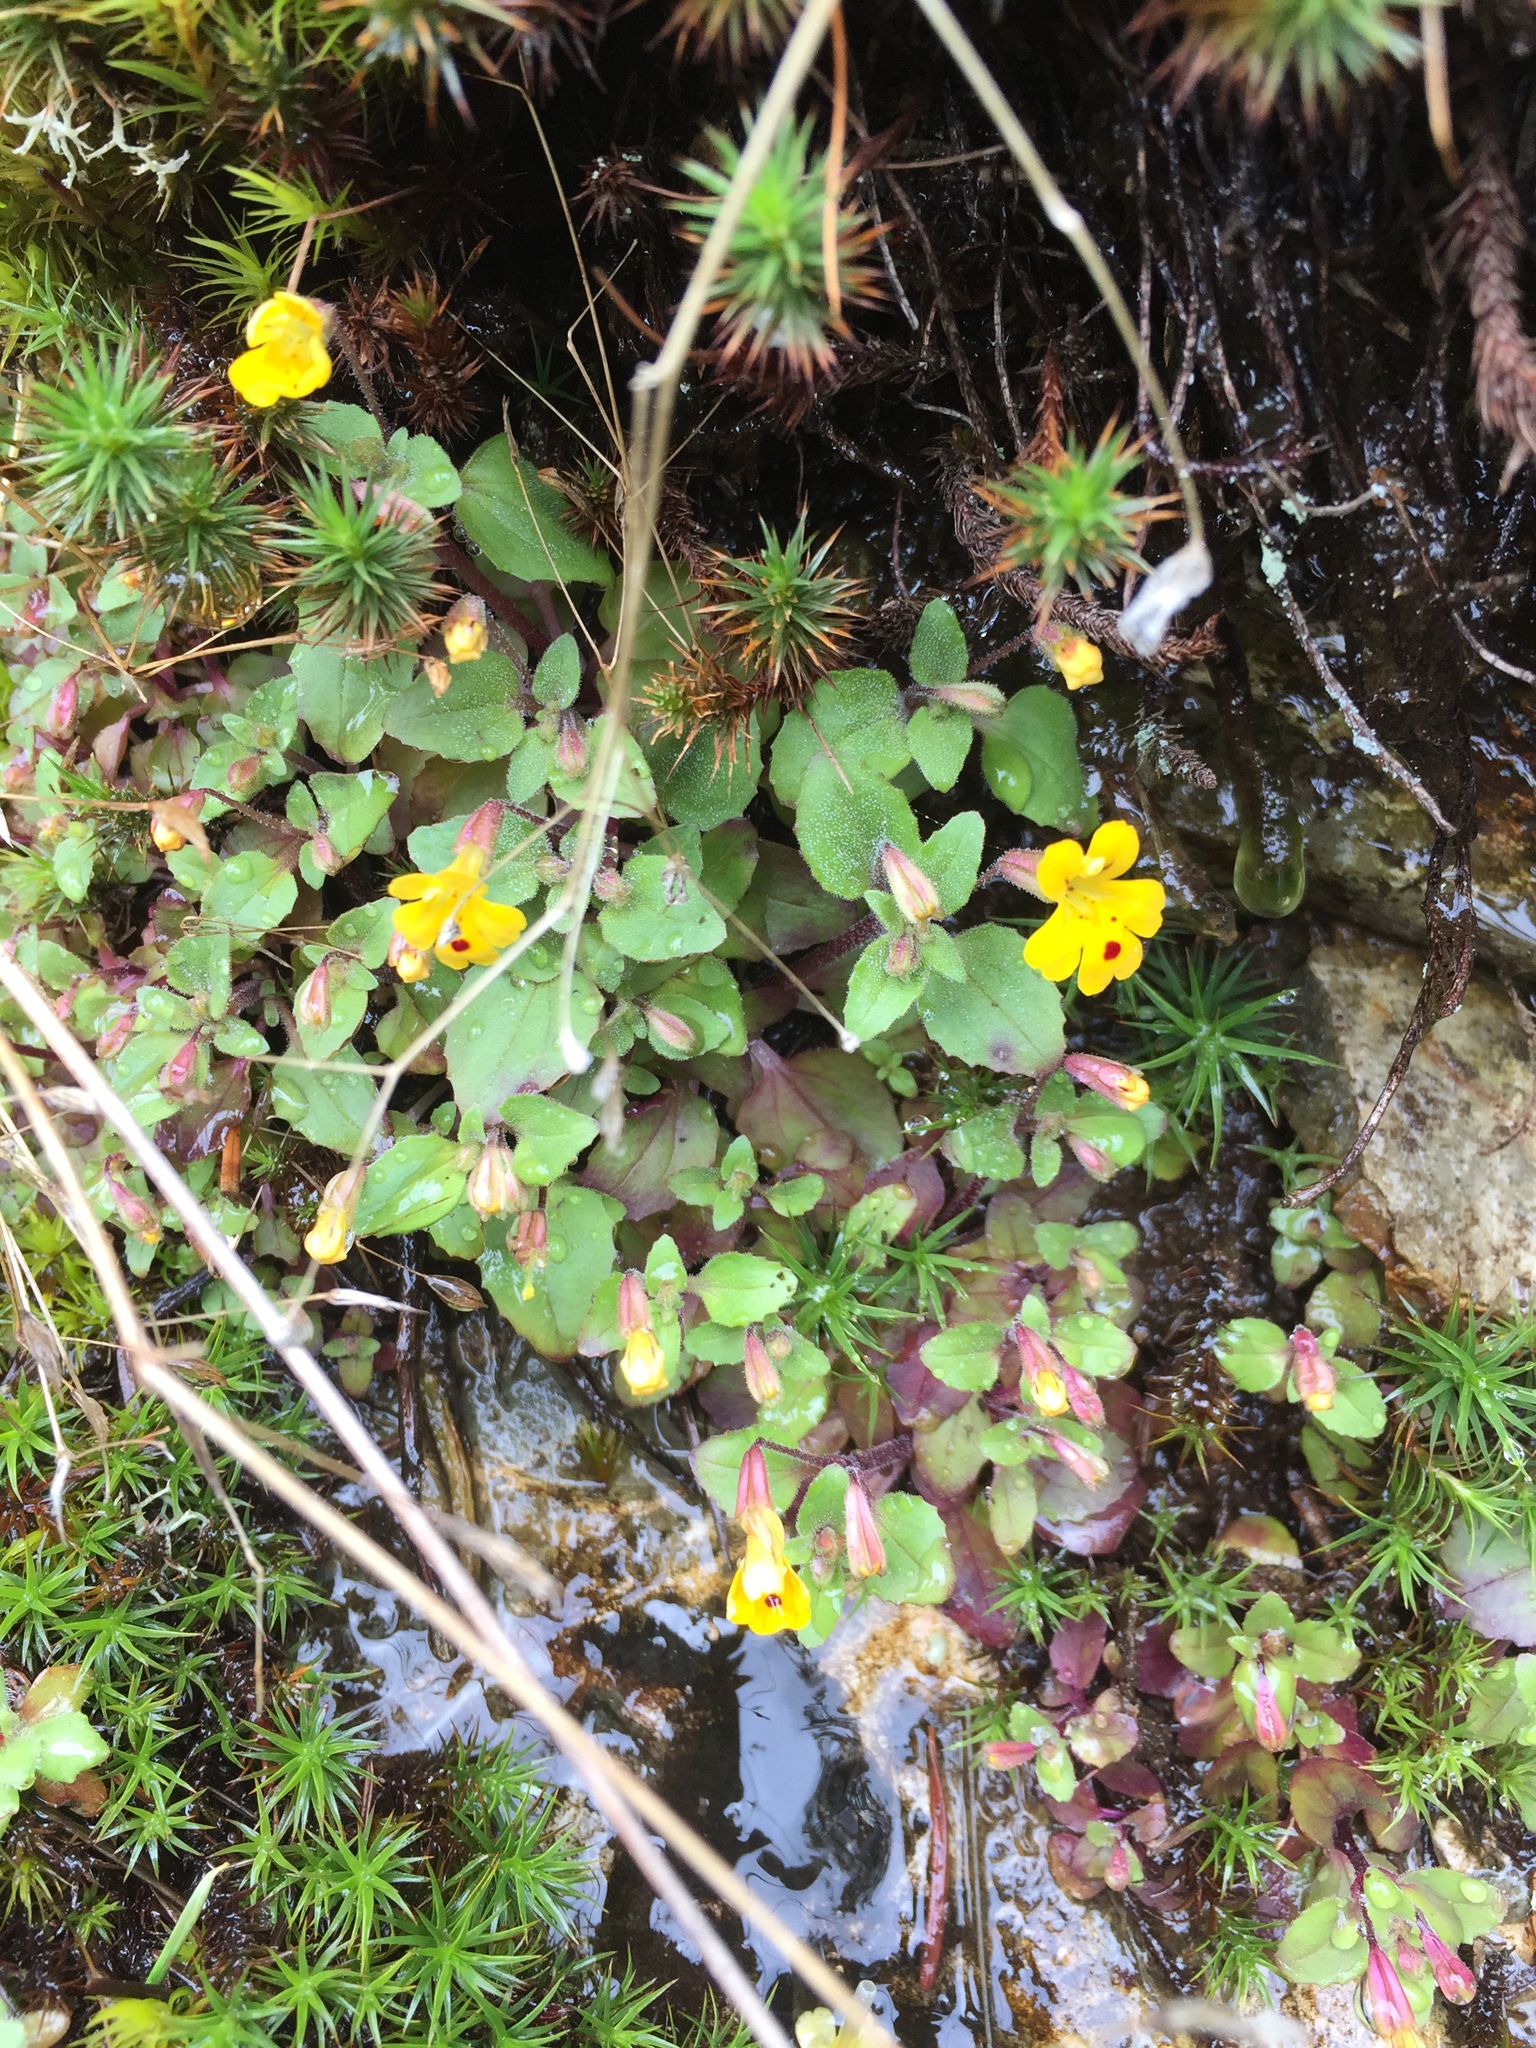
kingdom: Plantae
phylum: Tracheophyta
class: Magnoliopsida
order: Lamiales
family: Phrymaceae
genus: Erythranthe
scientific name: Erythranthe alsinoides
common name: Chickweed monkeyflower
